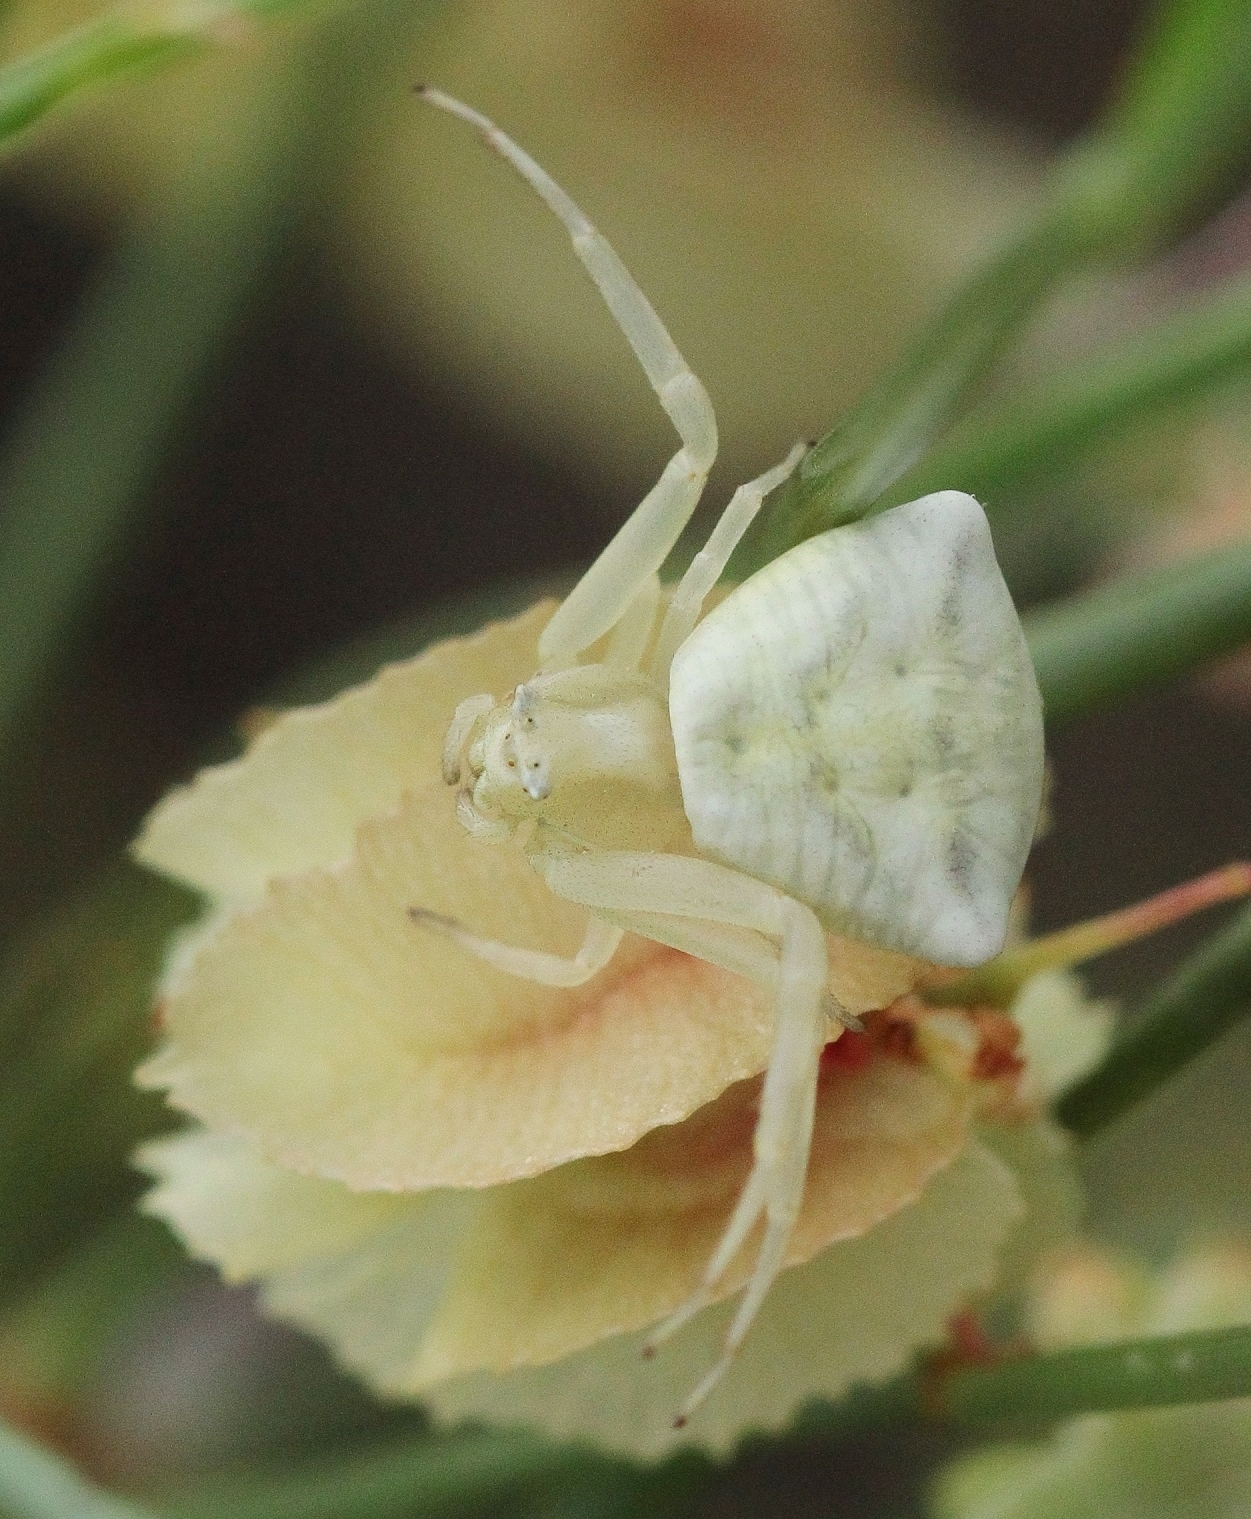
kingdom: Animalia
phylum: Arthropoda
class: Arachnida
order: Araneae
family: Thomisidae
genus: Thomisus
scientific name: Thomisus onustus
